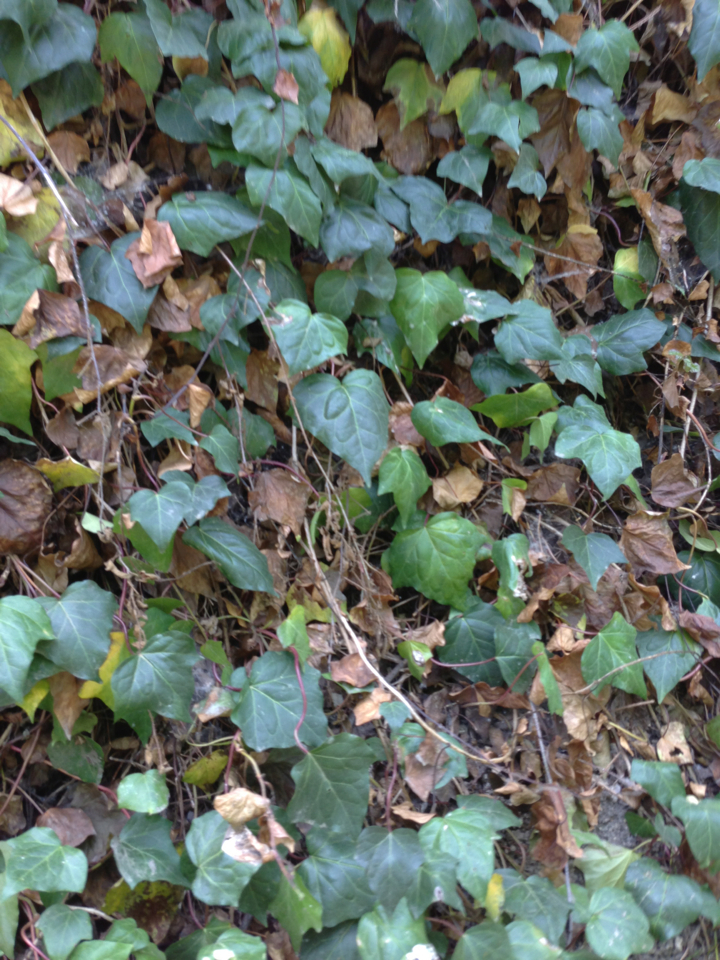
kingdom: Plantae
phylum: Tracheophyta
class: Magnoliopsida
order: Apiales
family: Araliaceae
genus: Hedera
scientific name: Hedera helix
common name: Ivy
